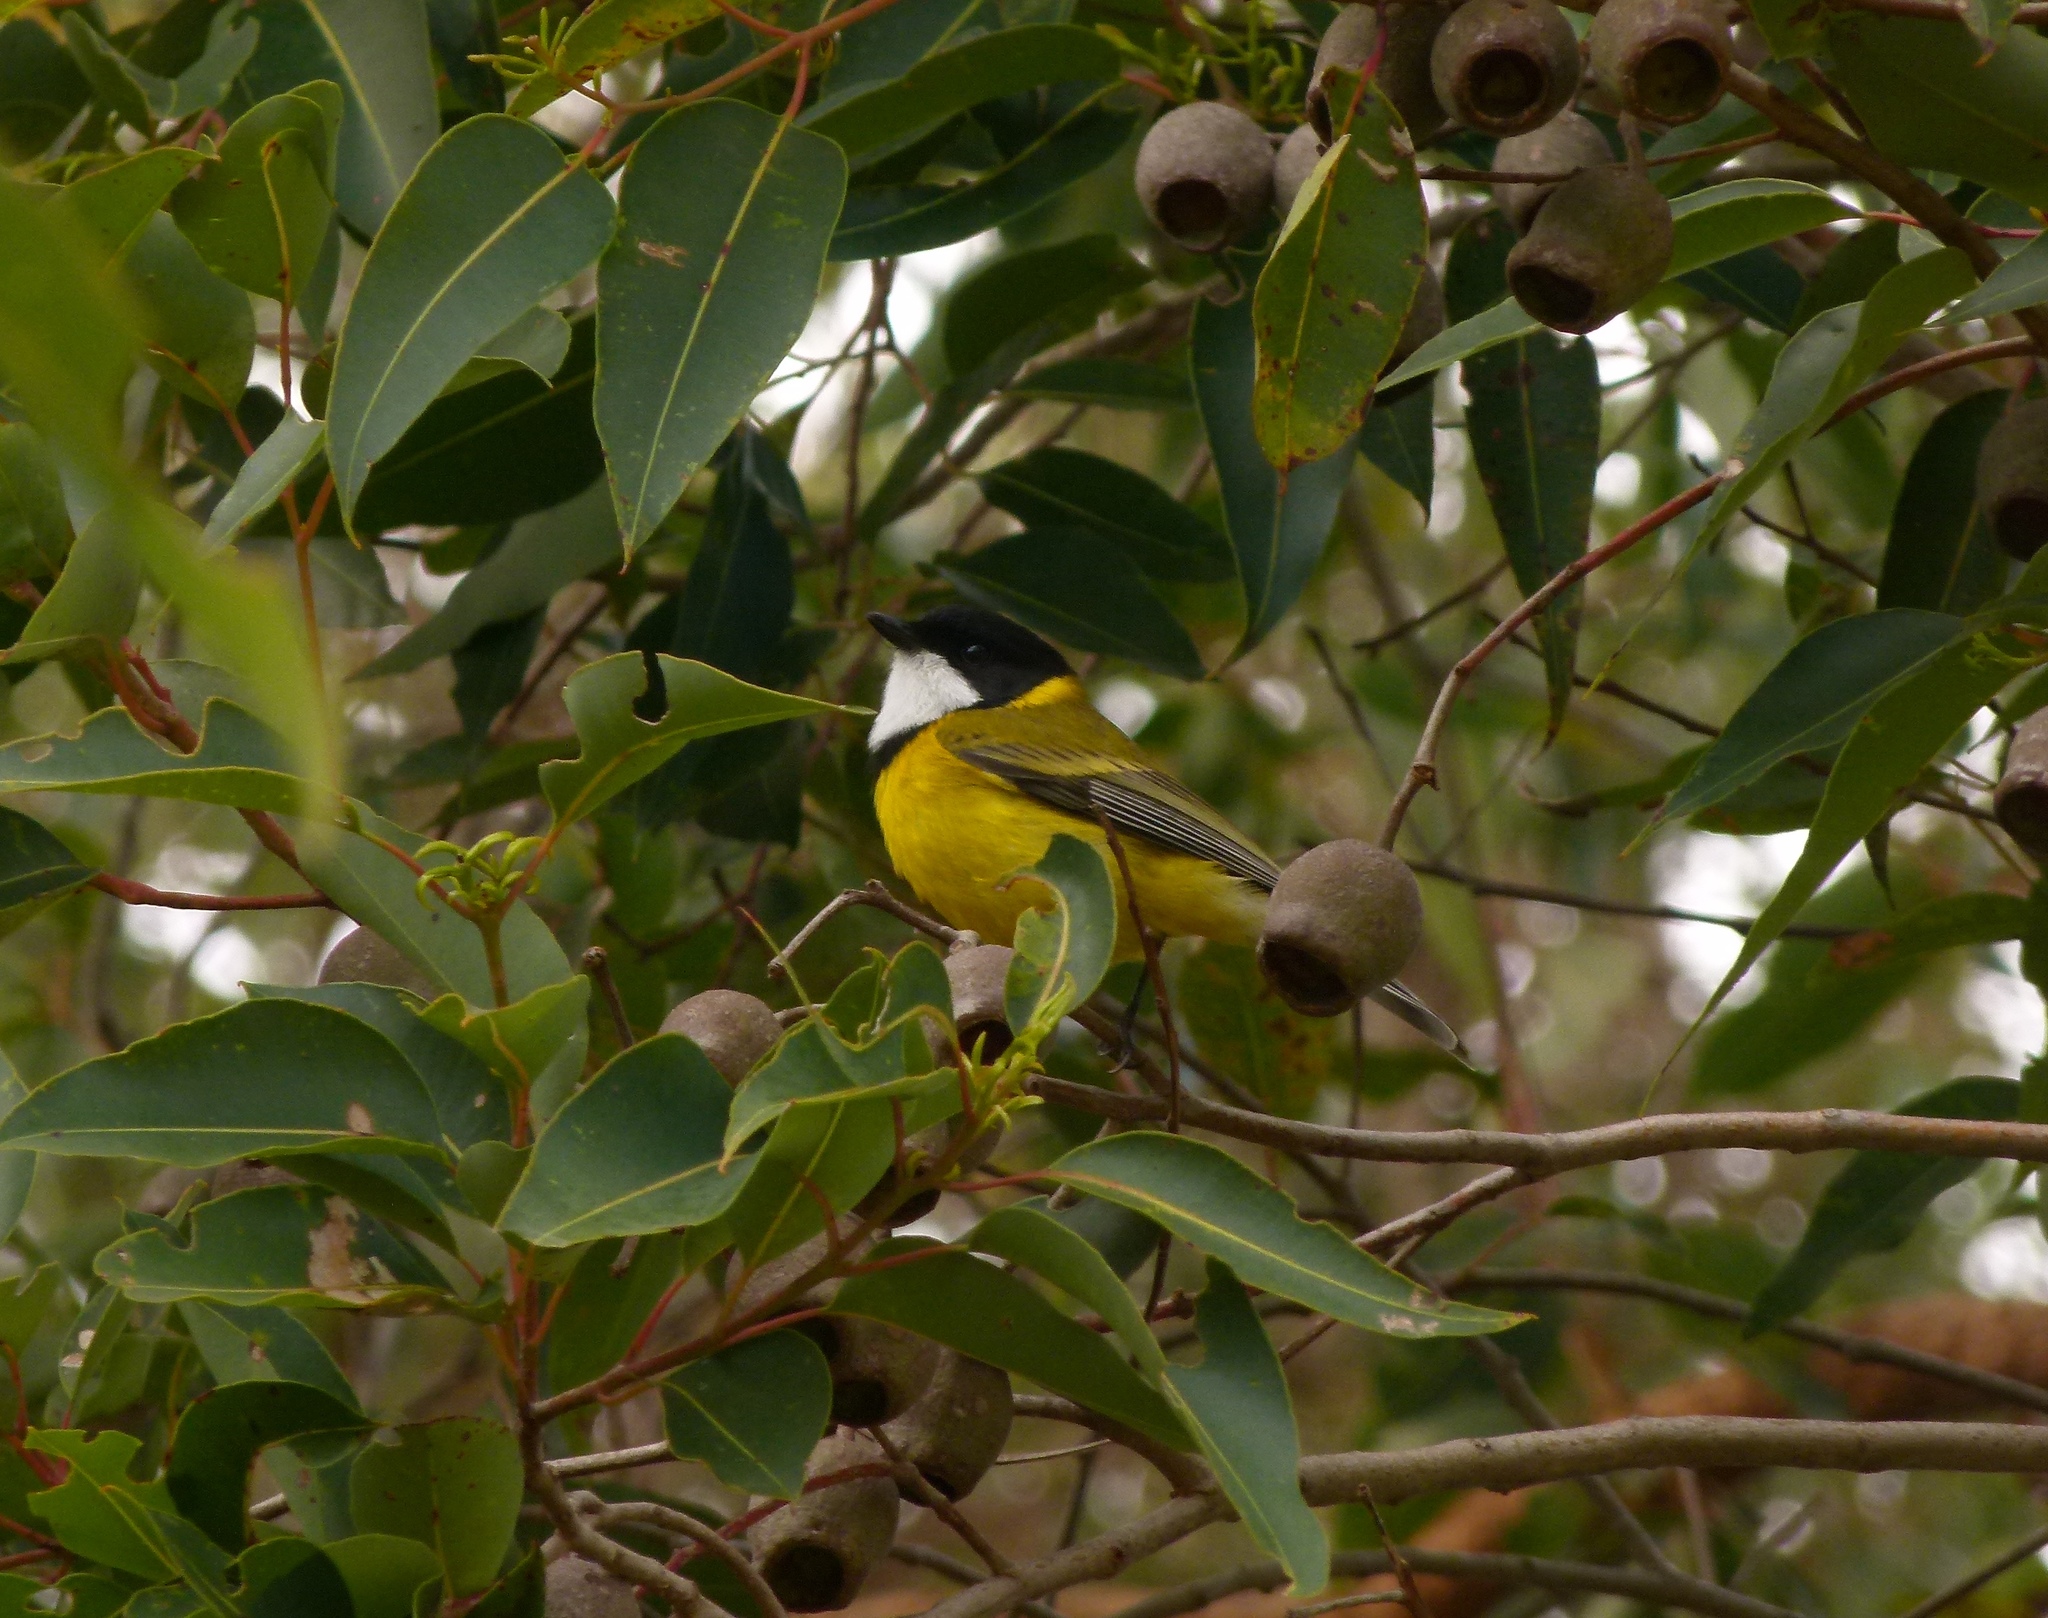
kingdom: Animalia
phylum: Chordata
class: Aves
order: Passeriformes
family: Pachycephalidae
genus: Pachycephala
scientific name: Pachycephala fuliginosa
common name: Western whistler
